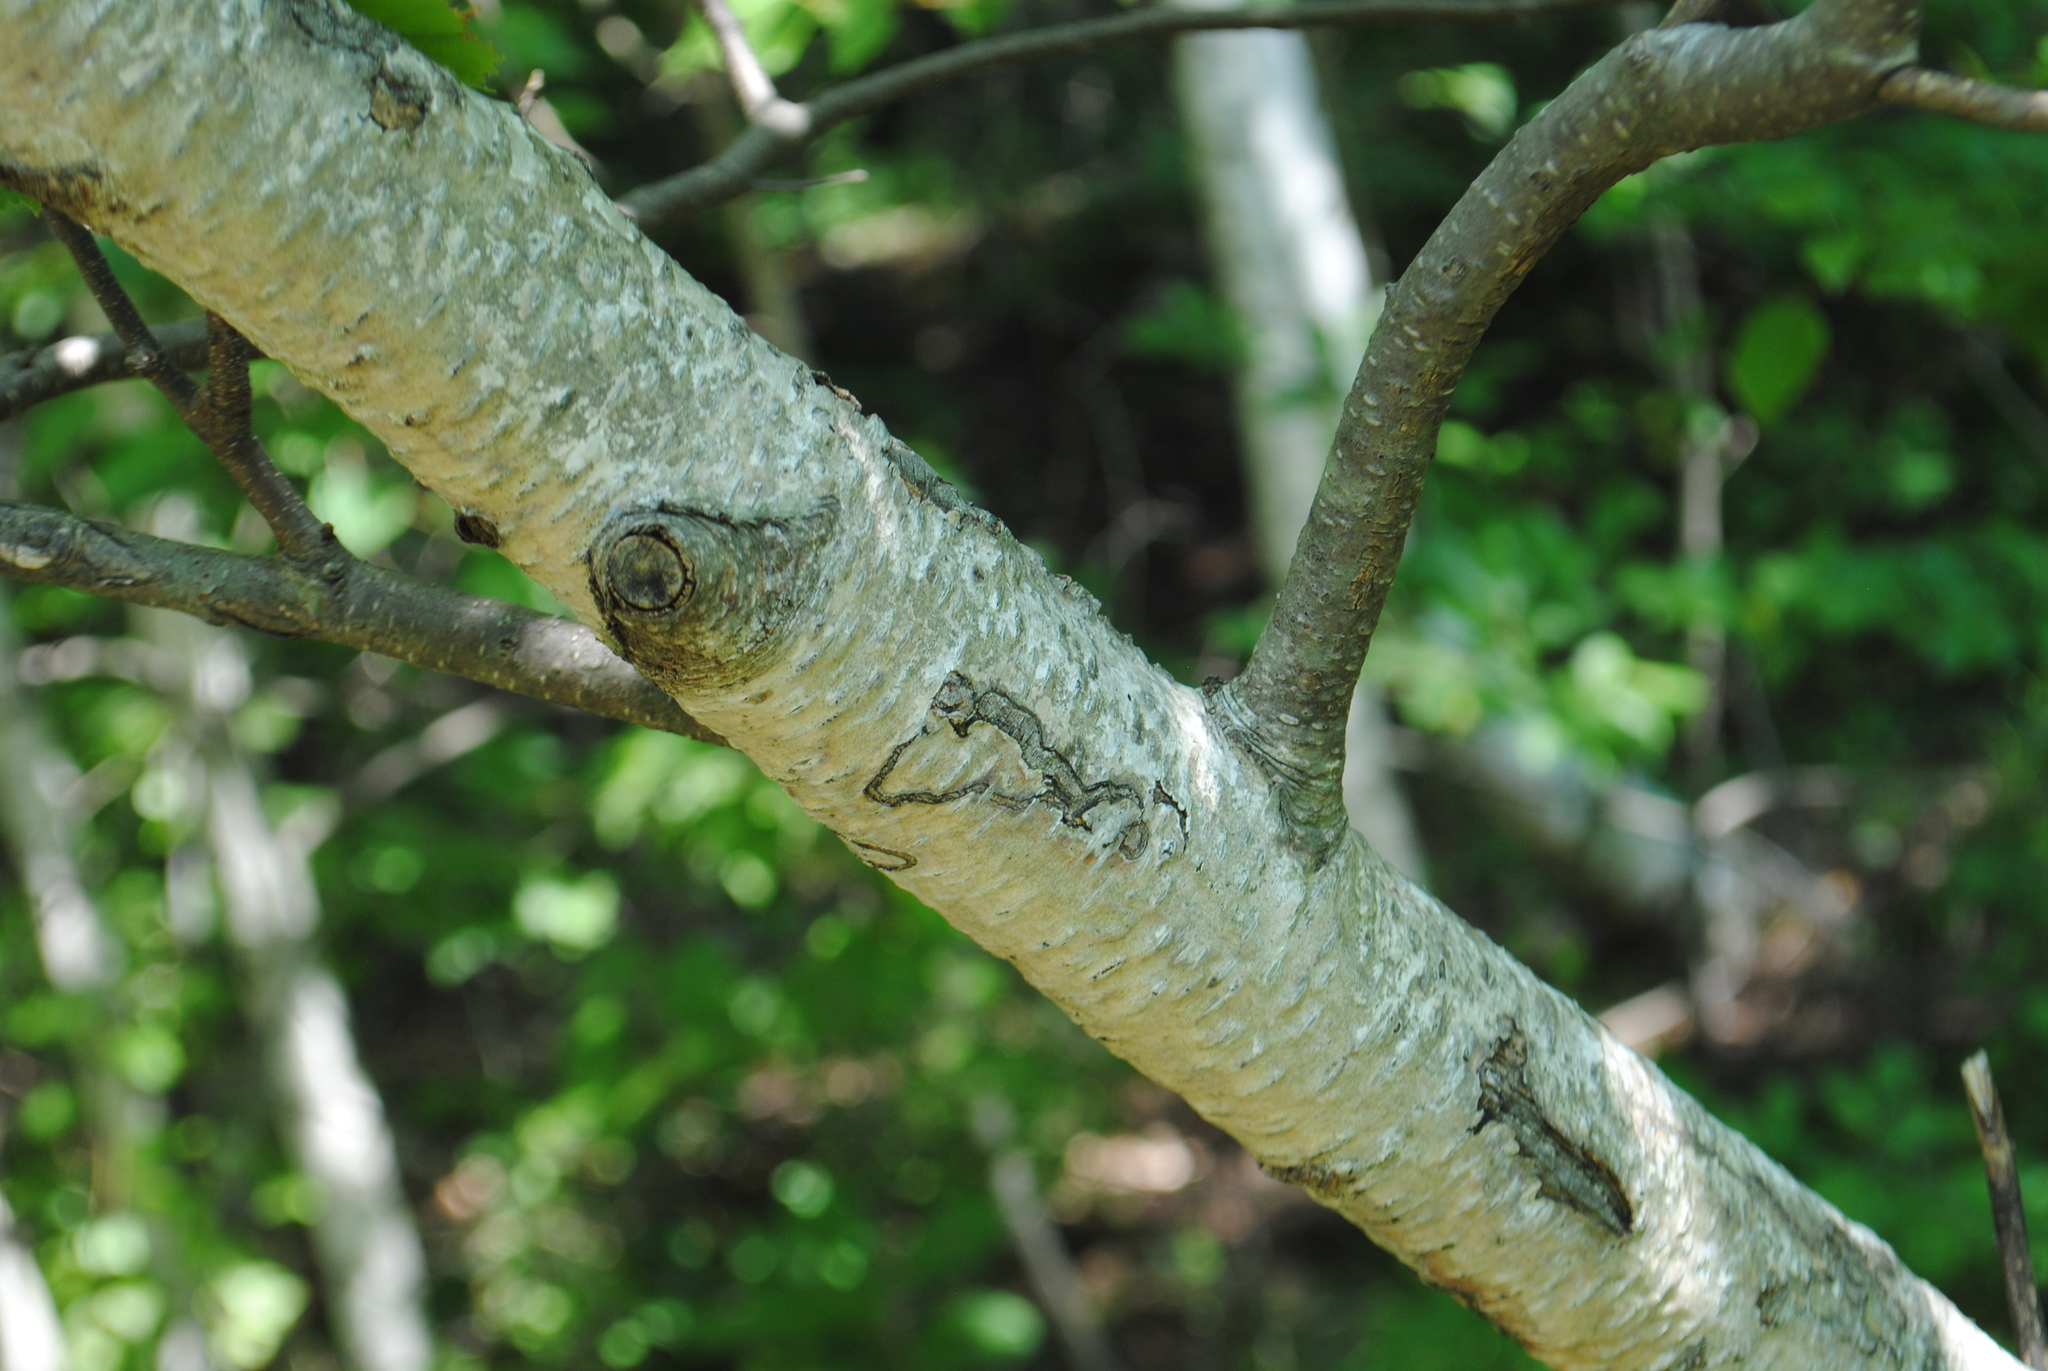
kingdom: Plantae
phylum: Tracheophyta
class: Magnoliopsida
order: Fagales
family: Betulaceae
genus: Betula
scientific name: Betula populifolia
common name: Fire birch
